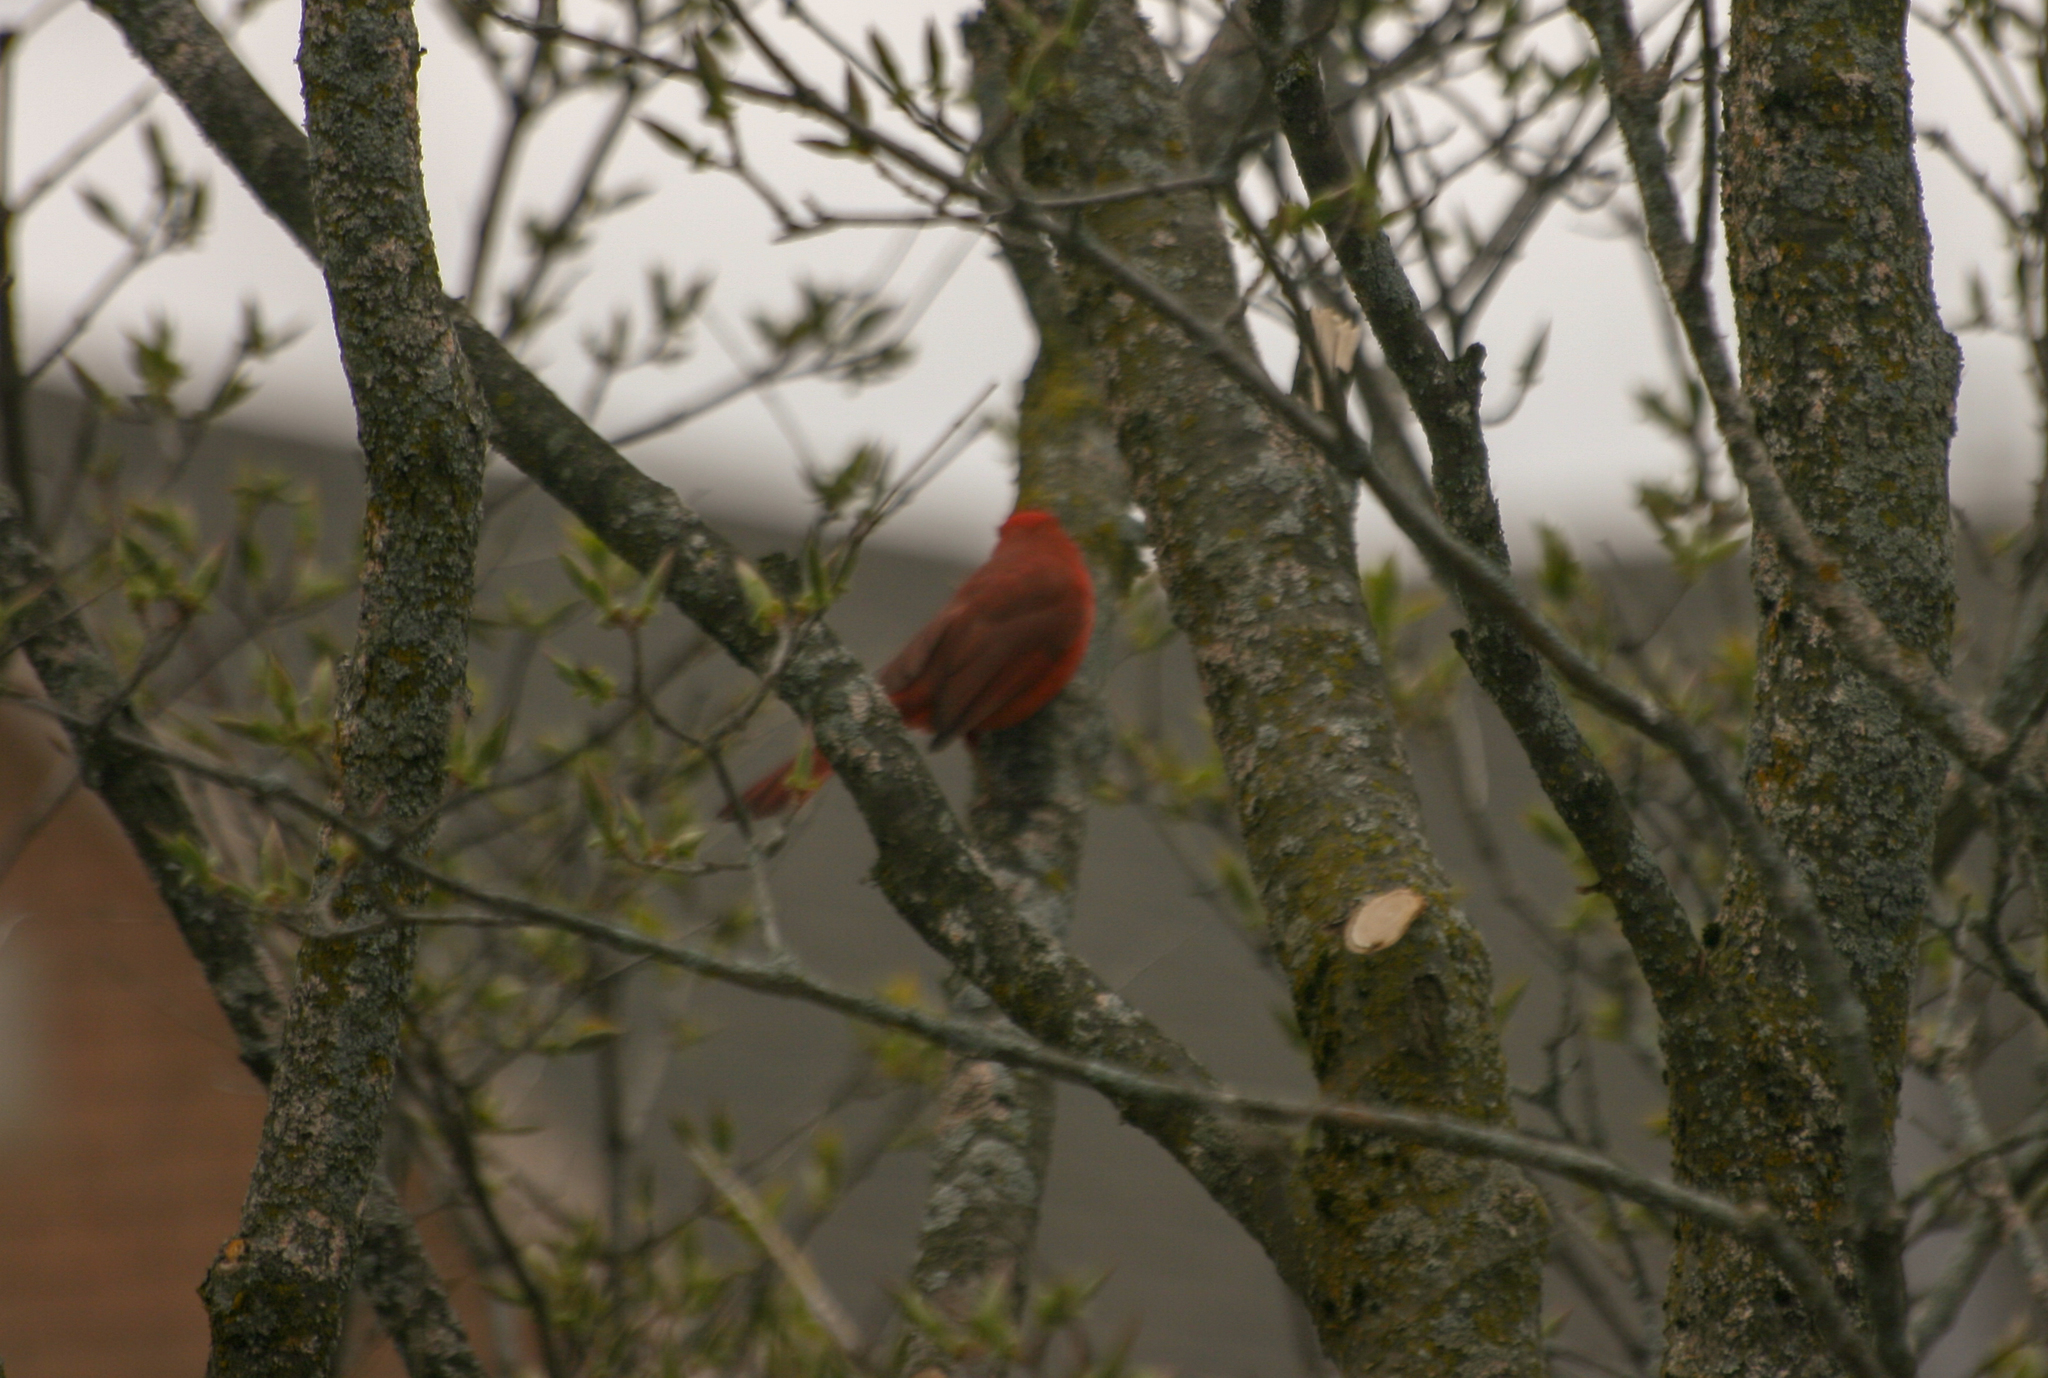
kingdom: Animalia
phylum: Chordata
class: Aves
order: Passeriformes
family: Cardinalidae
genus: Cardinalis
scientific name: Cardinalis cardinalis
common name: Northern cardinal
